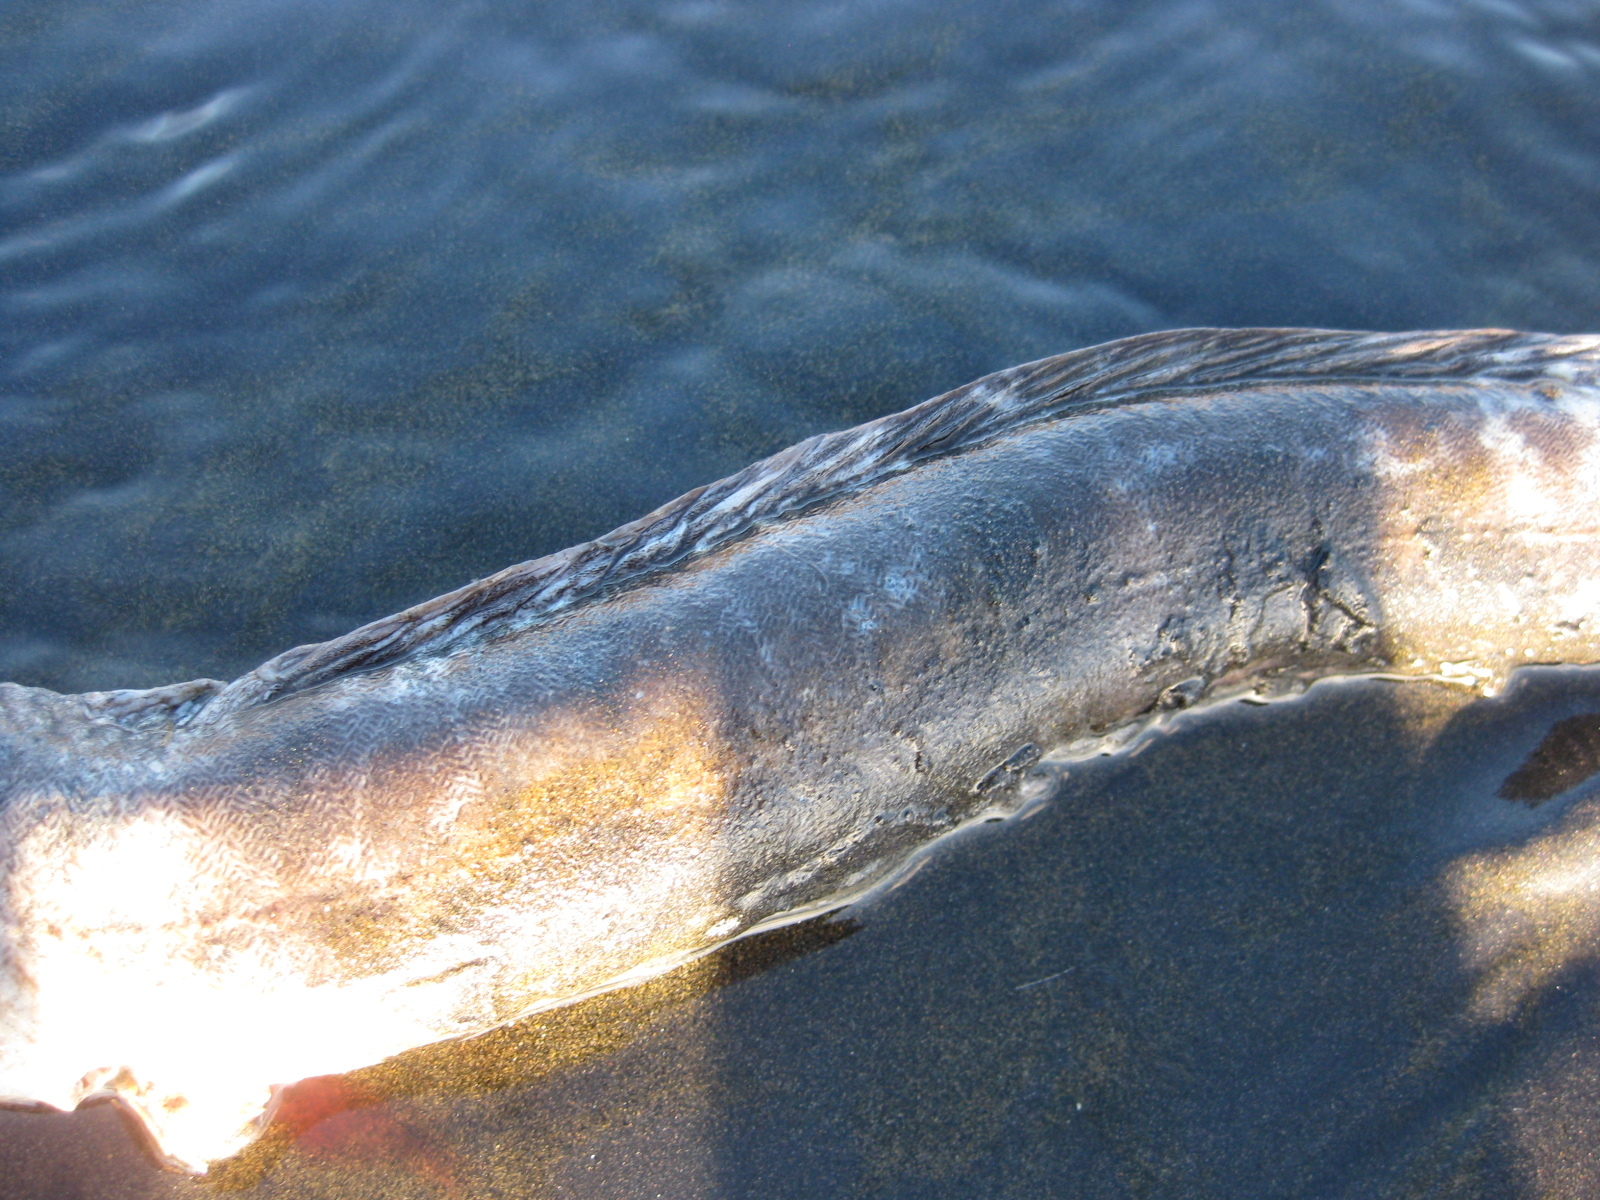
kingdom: Animalia
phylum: Chordata
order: Anguilliformes
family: Anguillidae
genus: Anguilla
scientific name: Anguilla dieffenbachii
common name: New zealand longfin eel
